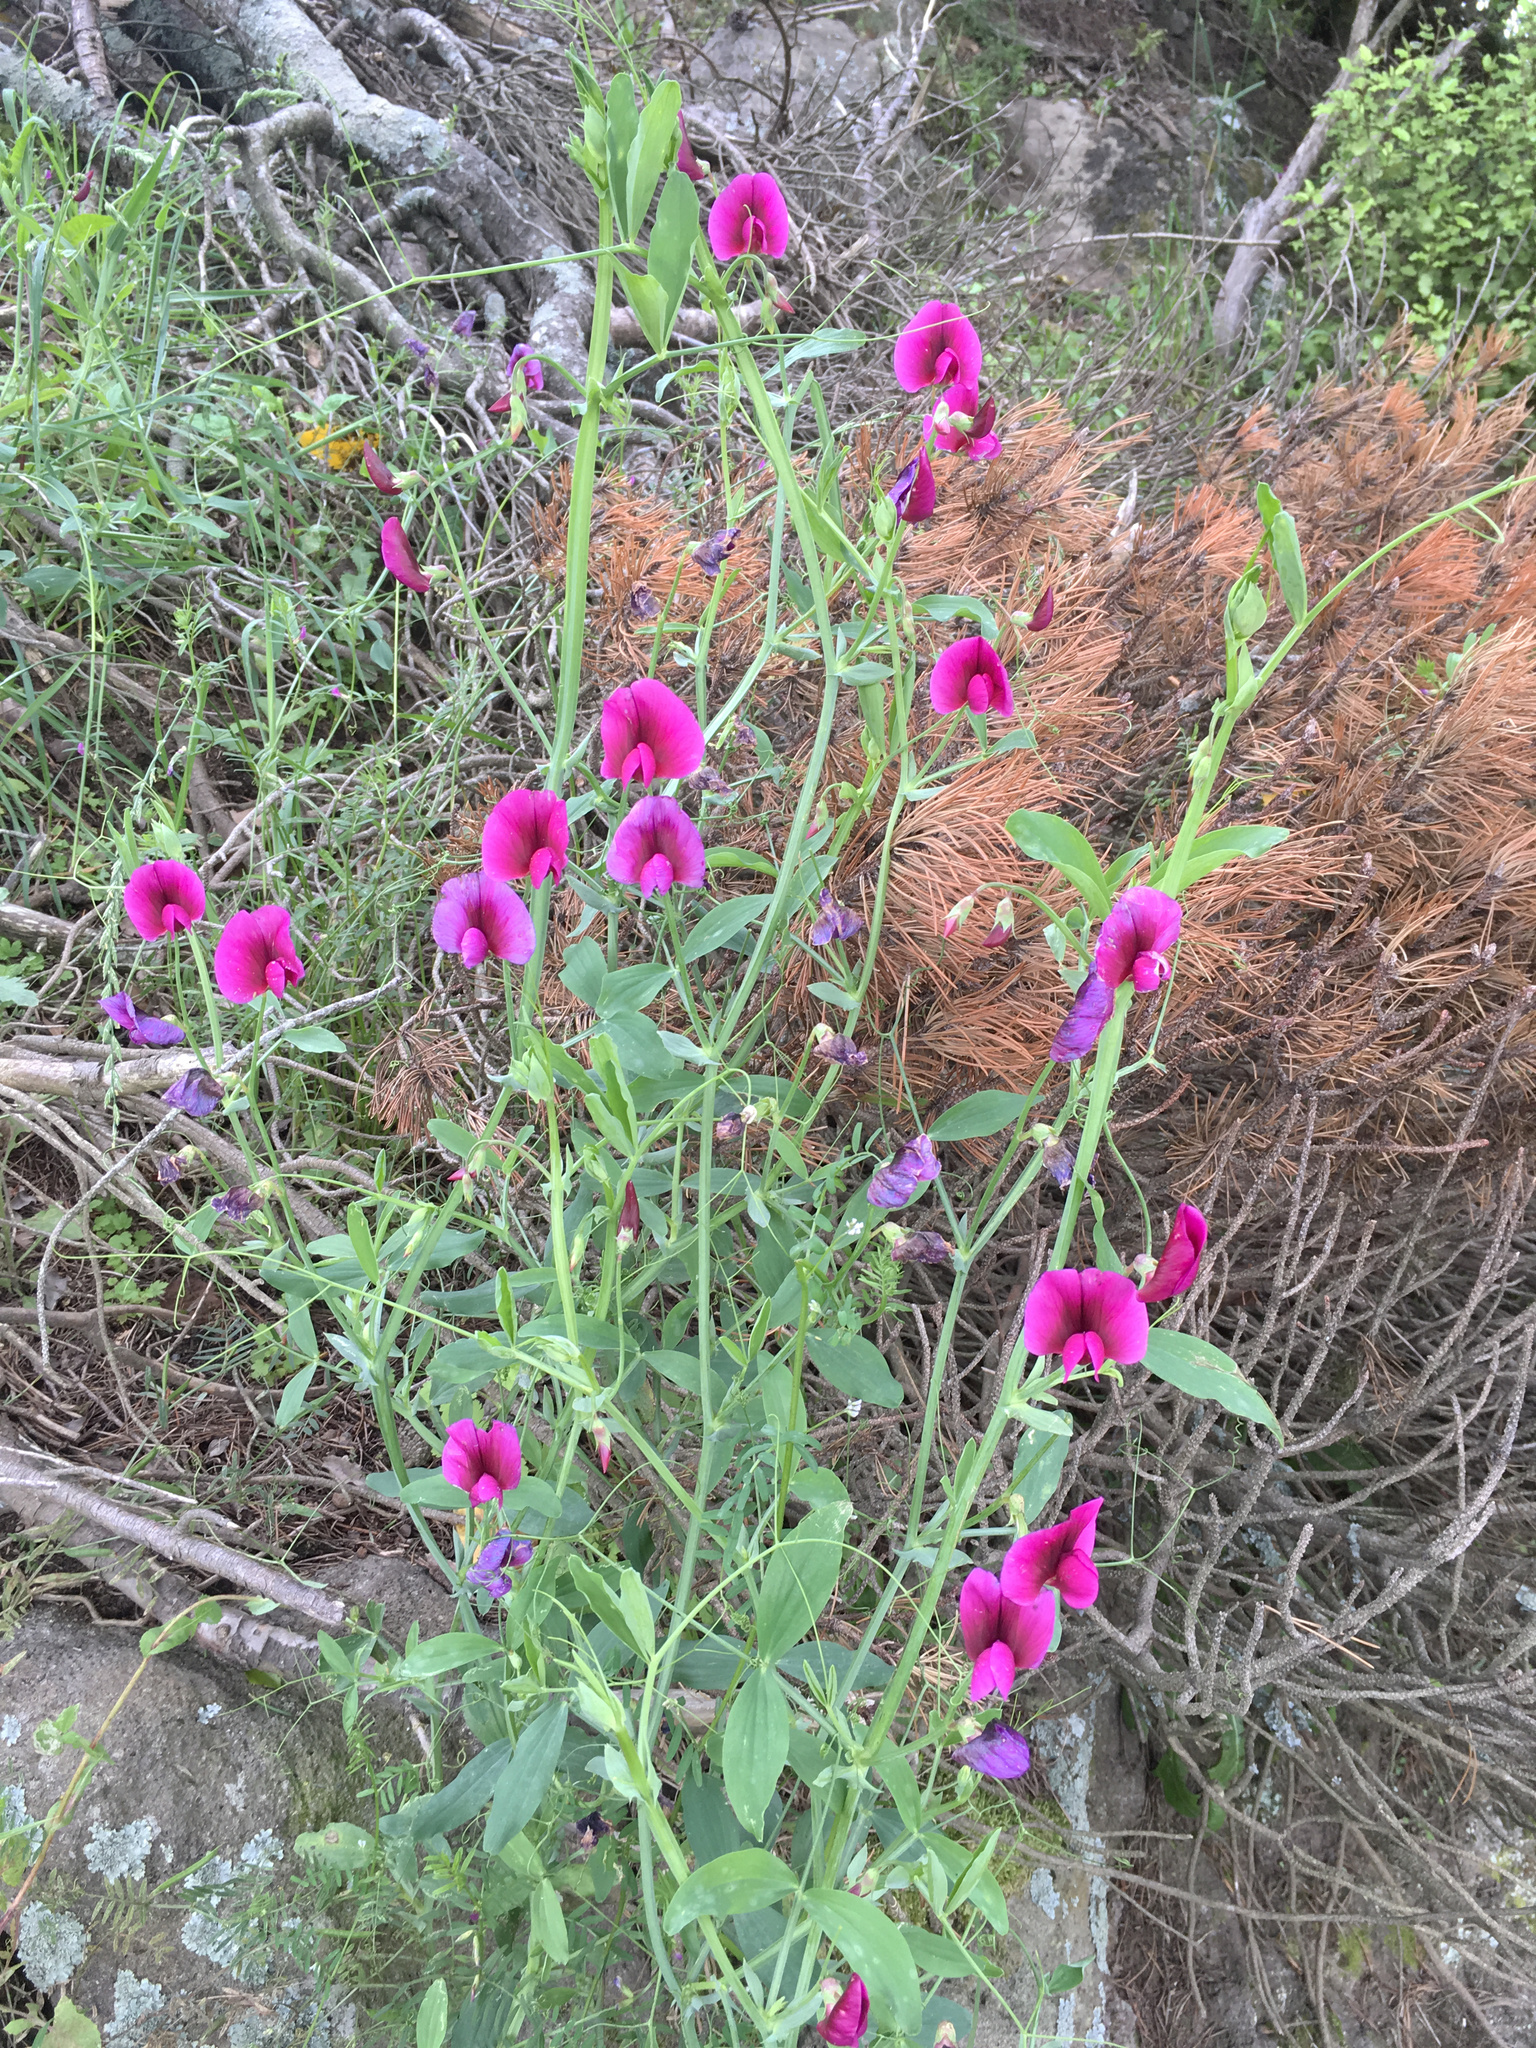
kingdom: Plantae
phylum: Tracheophyta
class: Magnoliopsida
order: Fabales
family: Fabaceae
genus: Lathyrus
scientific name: Lathyrus tingitanus
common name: Tangier pea
